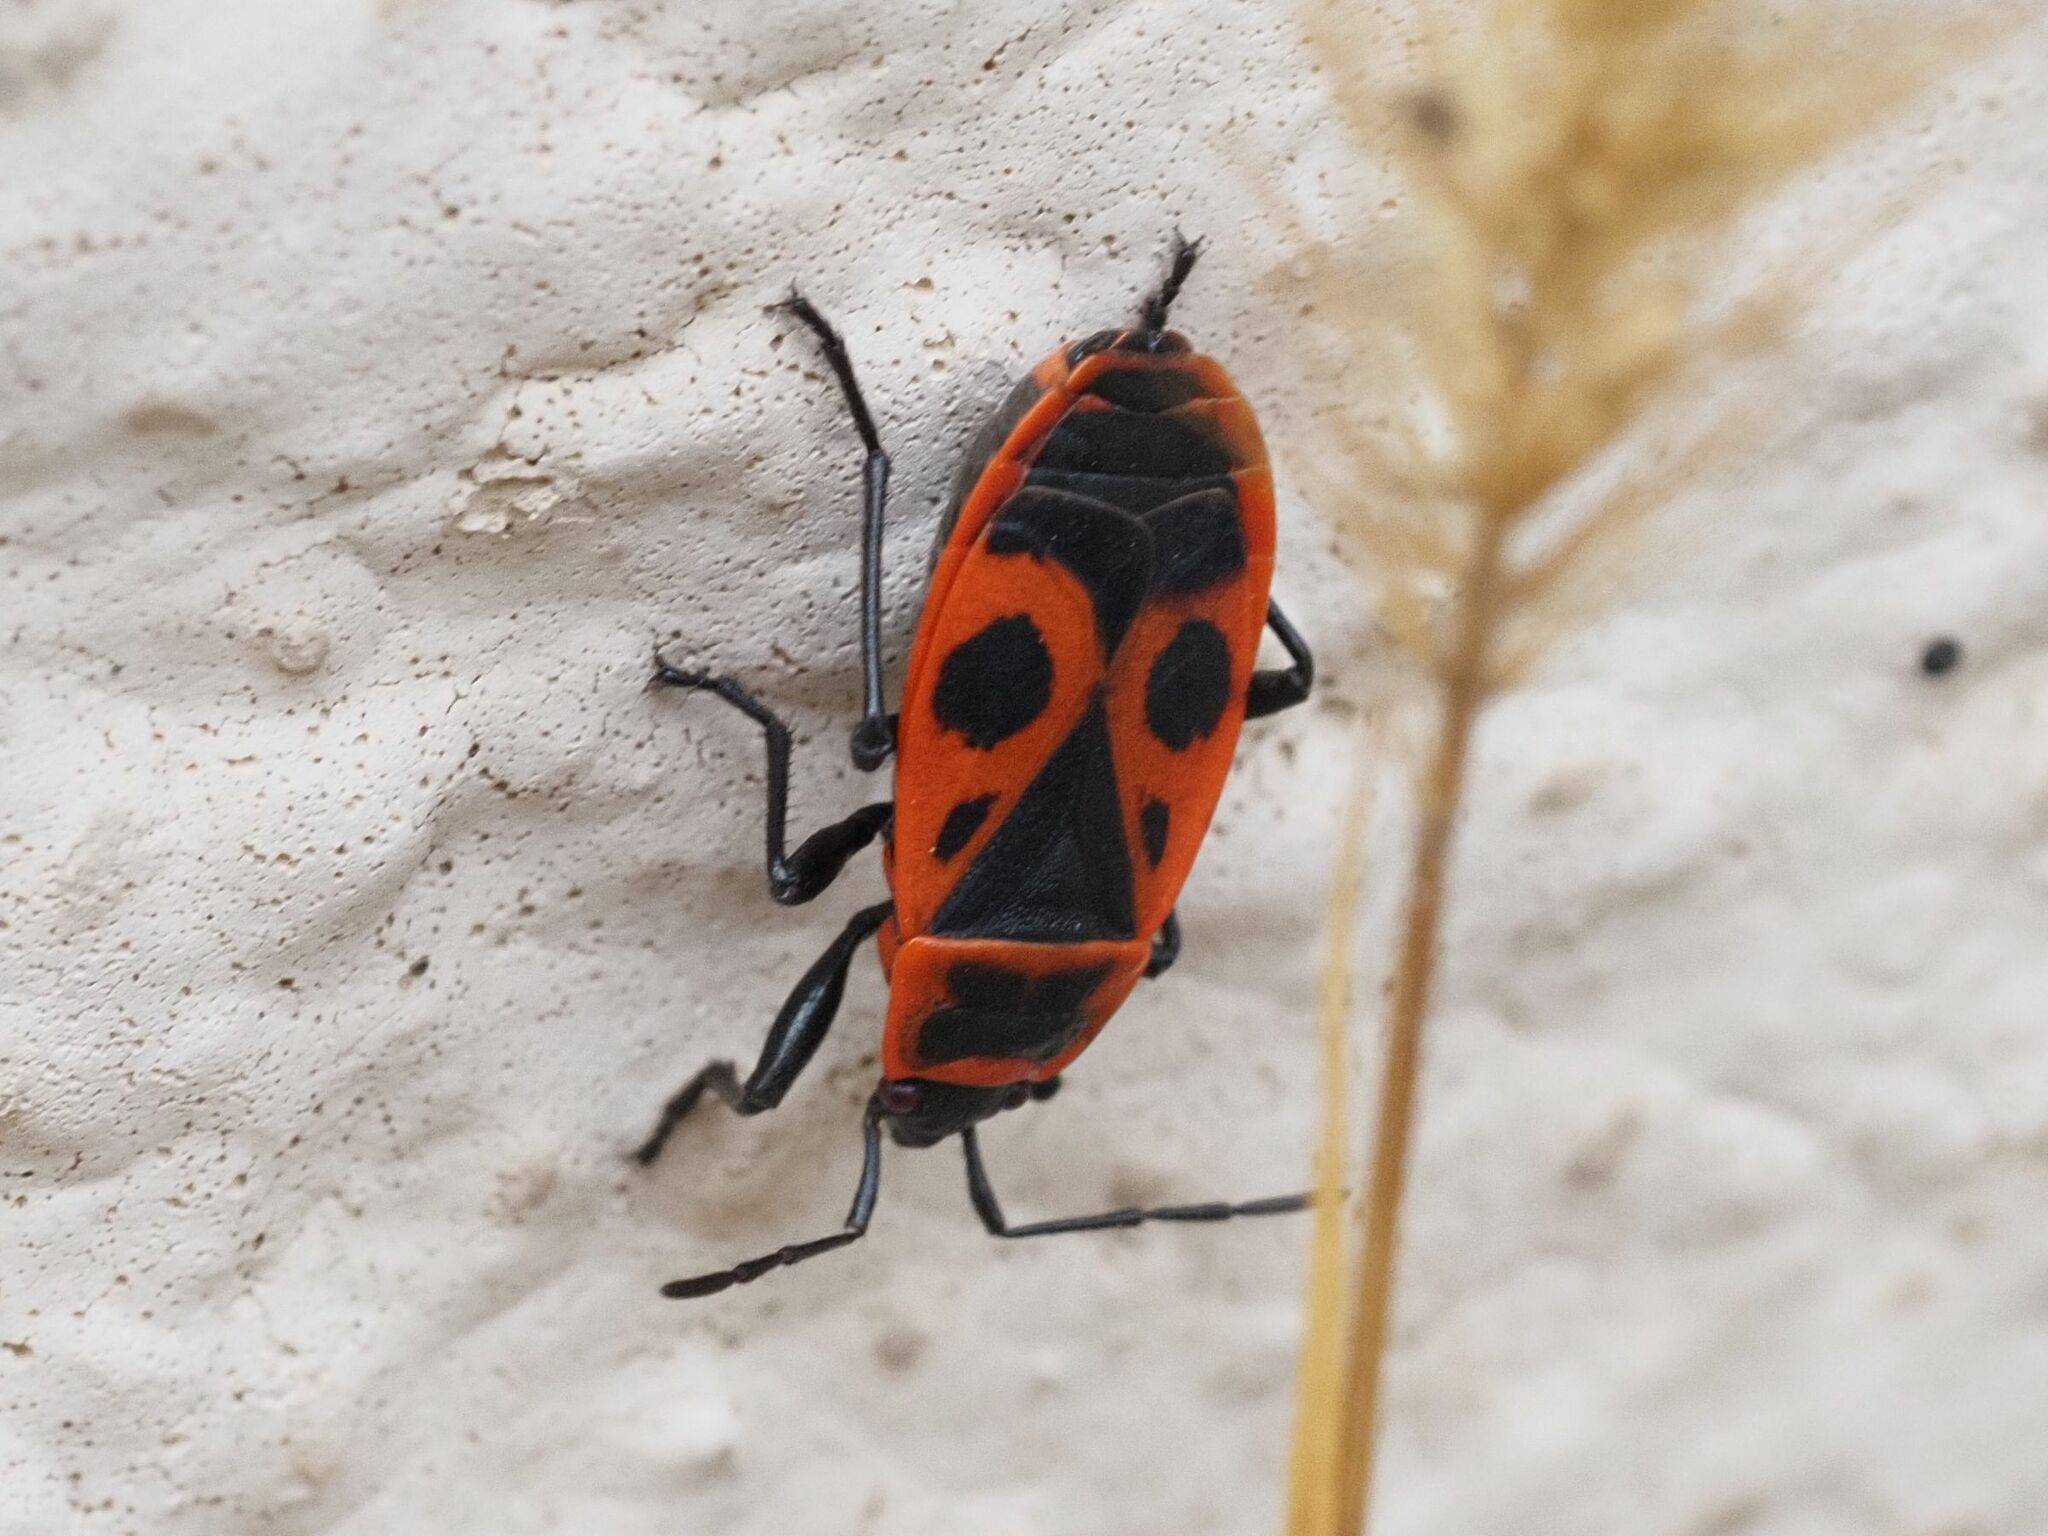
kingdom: Animalia
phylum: Arthropoda
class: Insecta
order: Hemiptera
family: Pyrrhocoridae
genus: Pyrrhocoris
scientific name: Pyrrhocoris apterus
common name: Firebug
